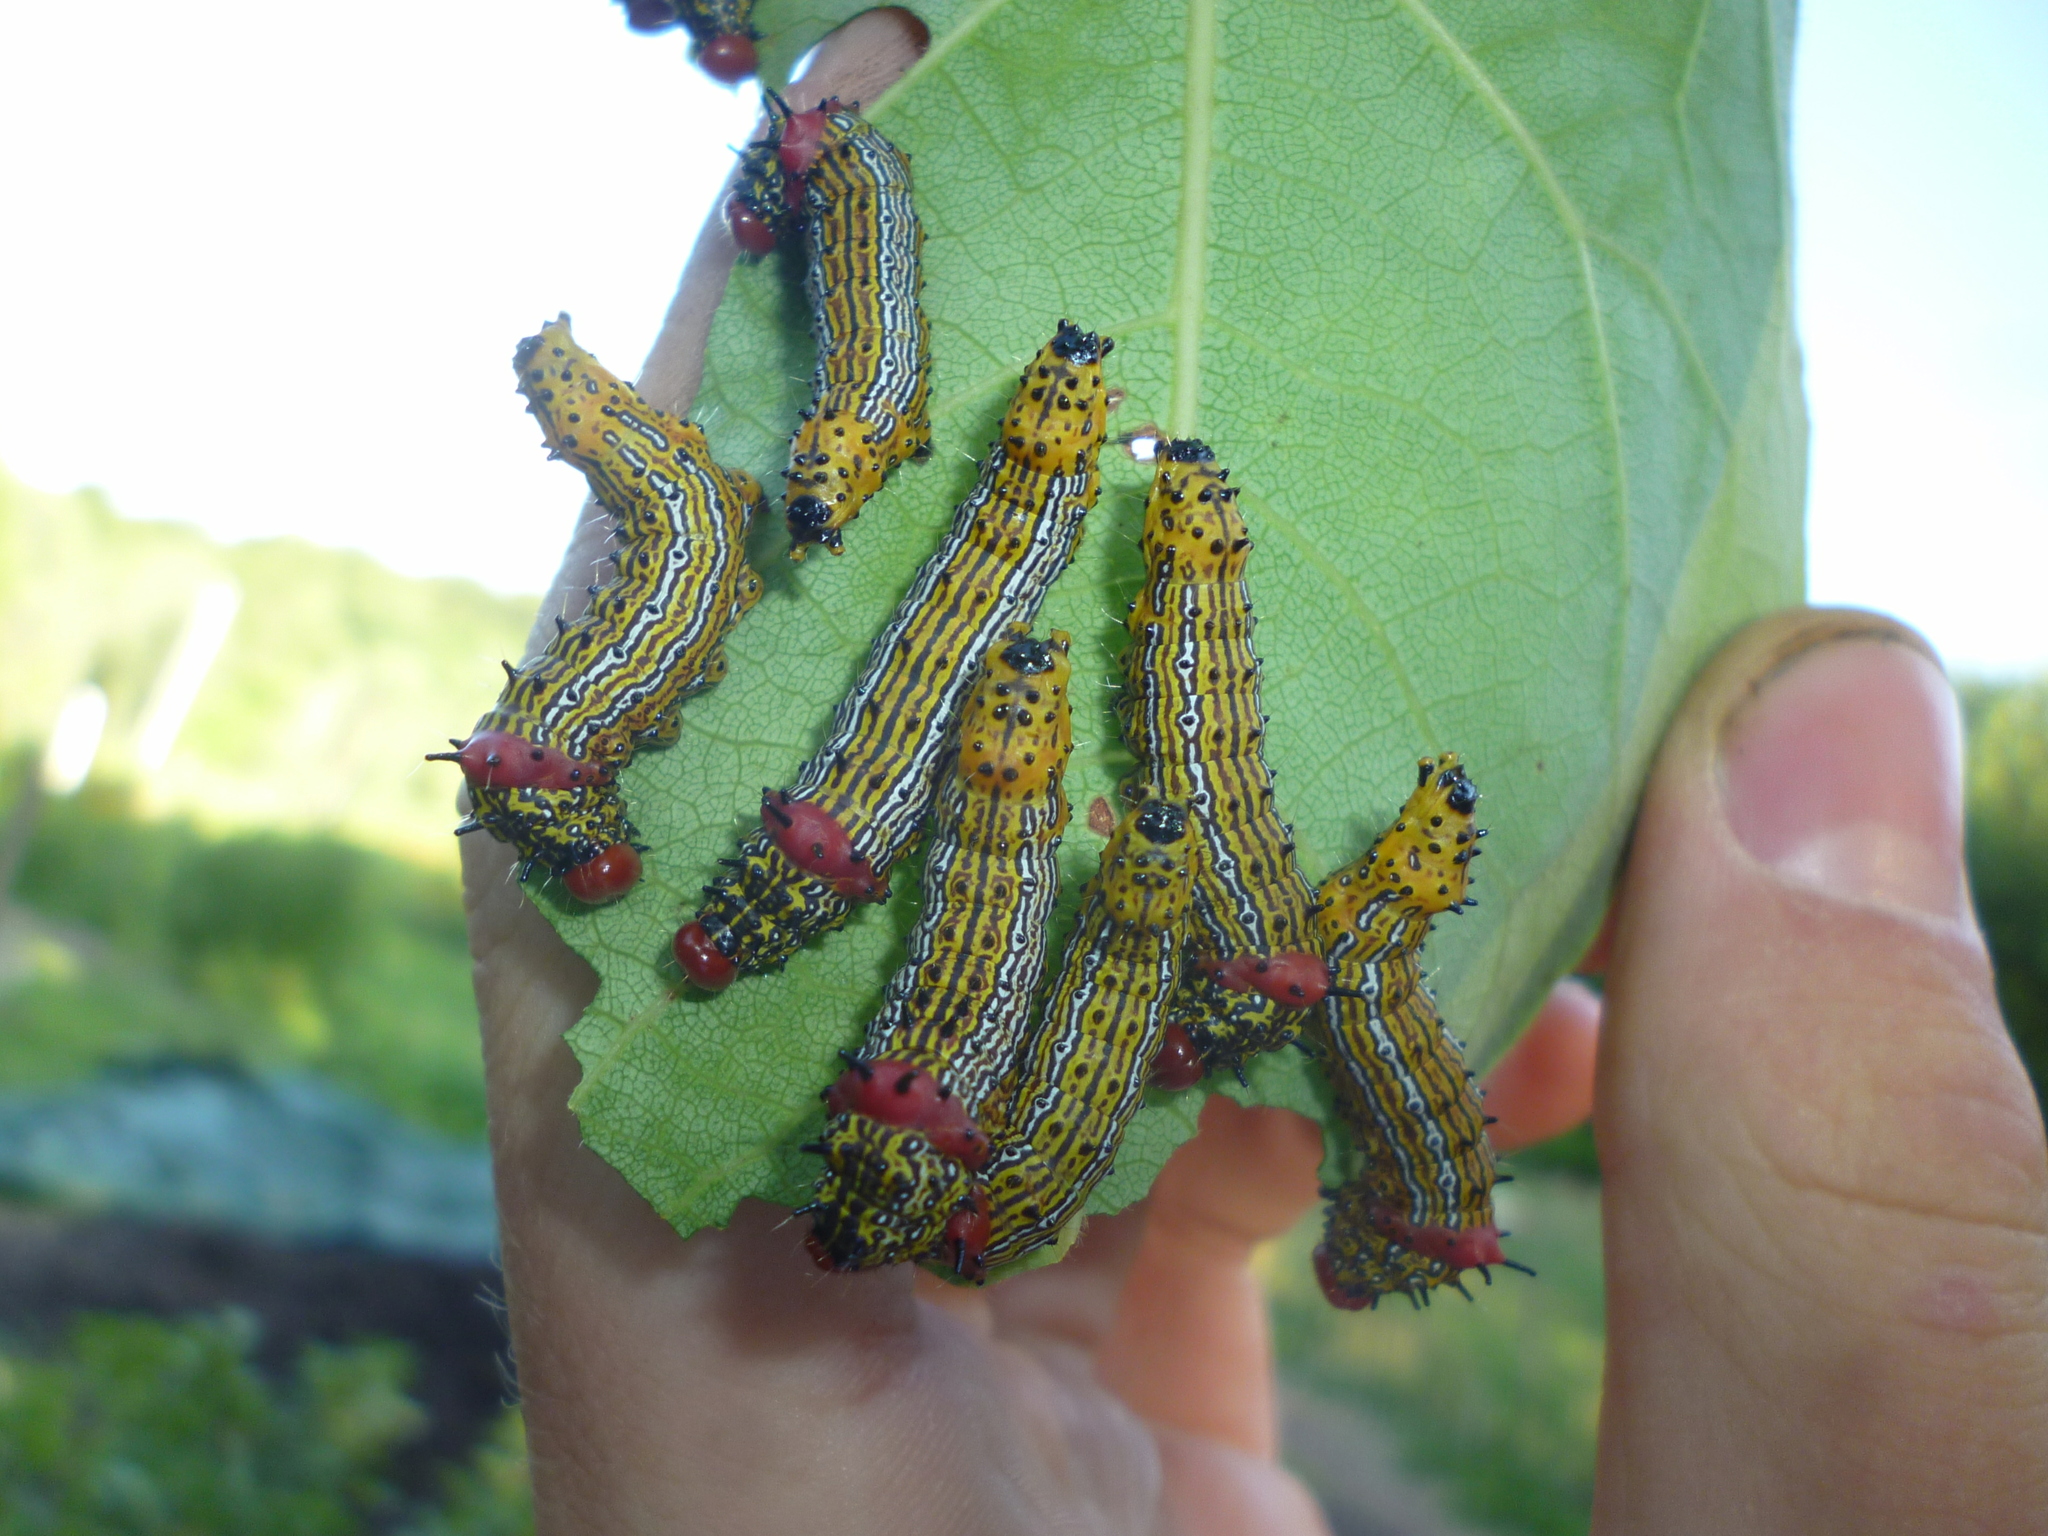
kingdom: Animalia
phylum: Arthropoda
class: Insecta
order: Lepidoptera
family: Notodontidae
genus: Schizura
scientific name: Schizura
